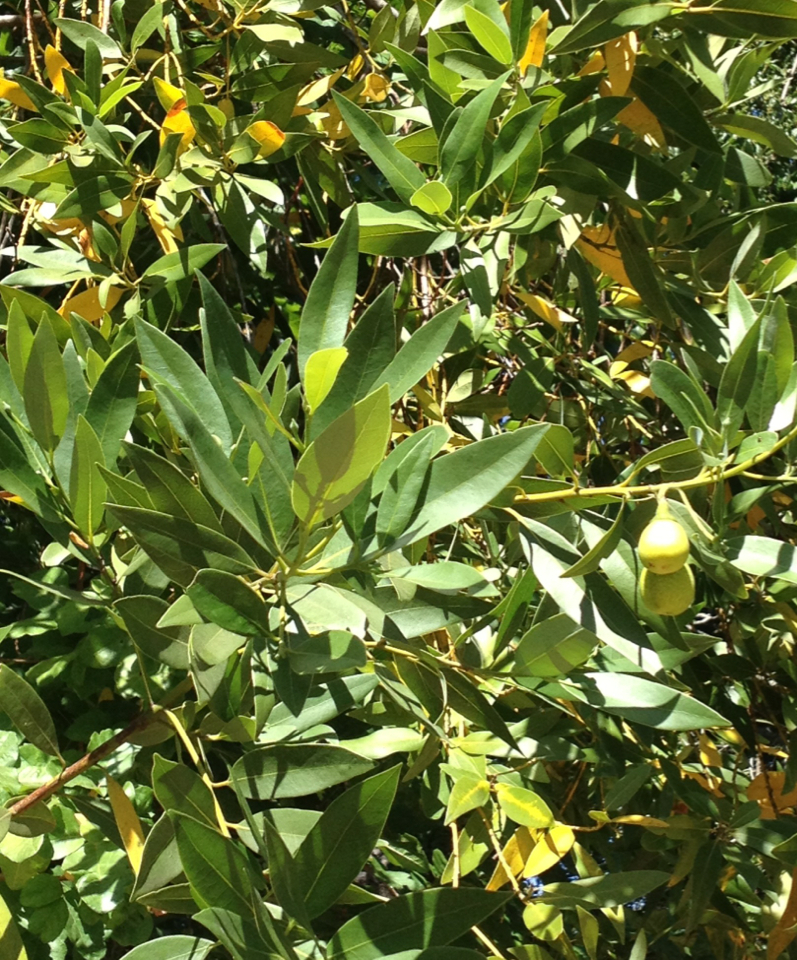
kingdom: Plantae
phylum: Tracheophyta
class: Magnoliopsida
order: Laurales
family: Lauraceae
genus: Umbellularia
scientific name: Umbellularia californica
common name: California bay
